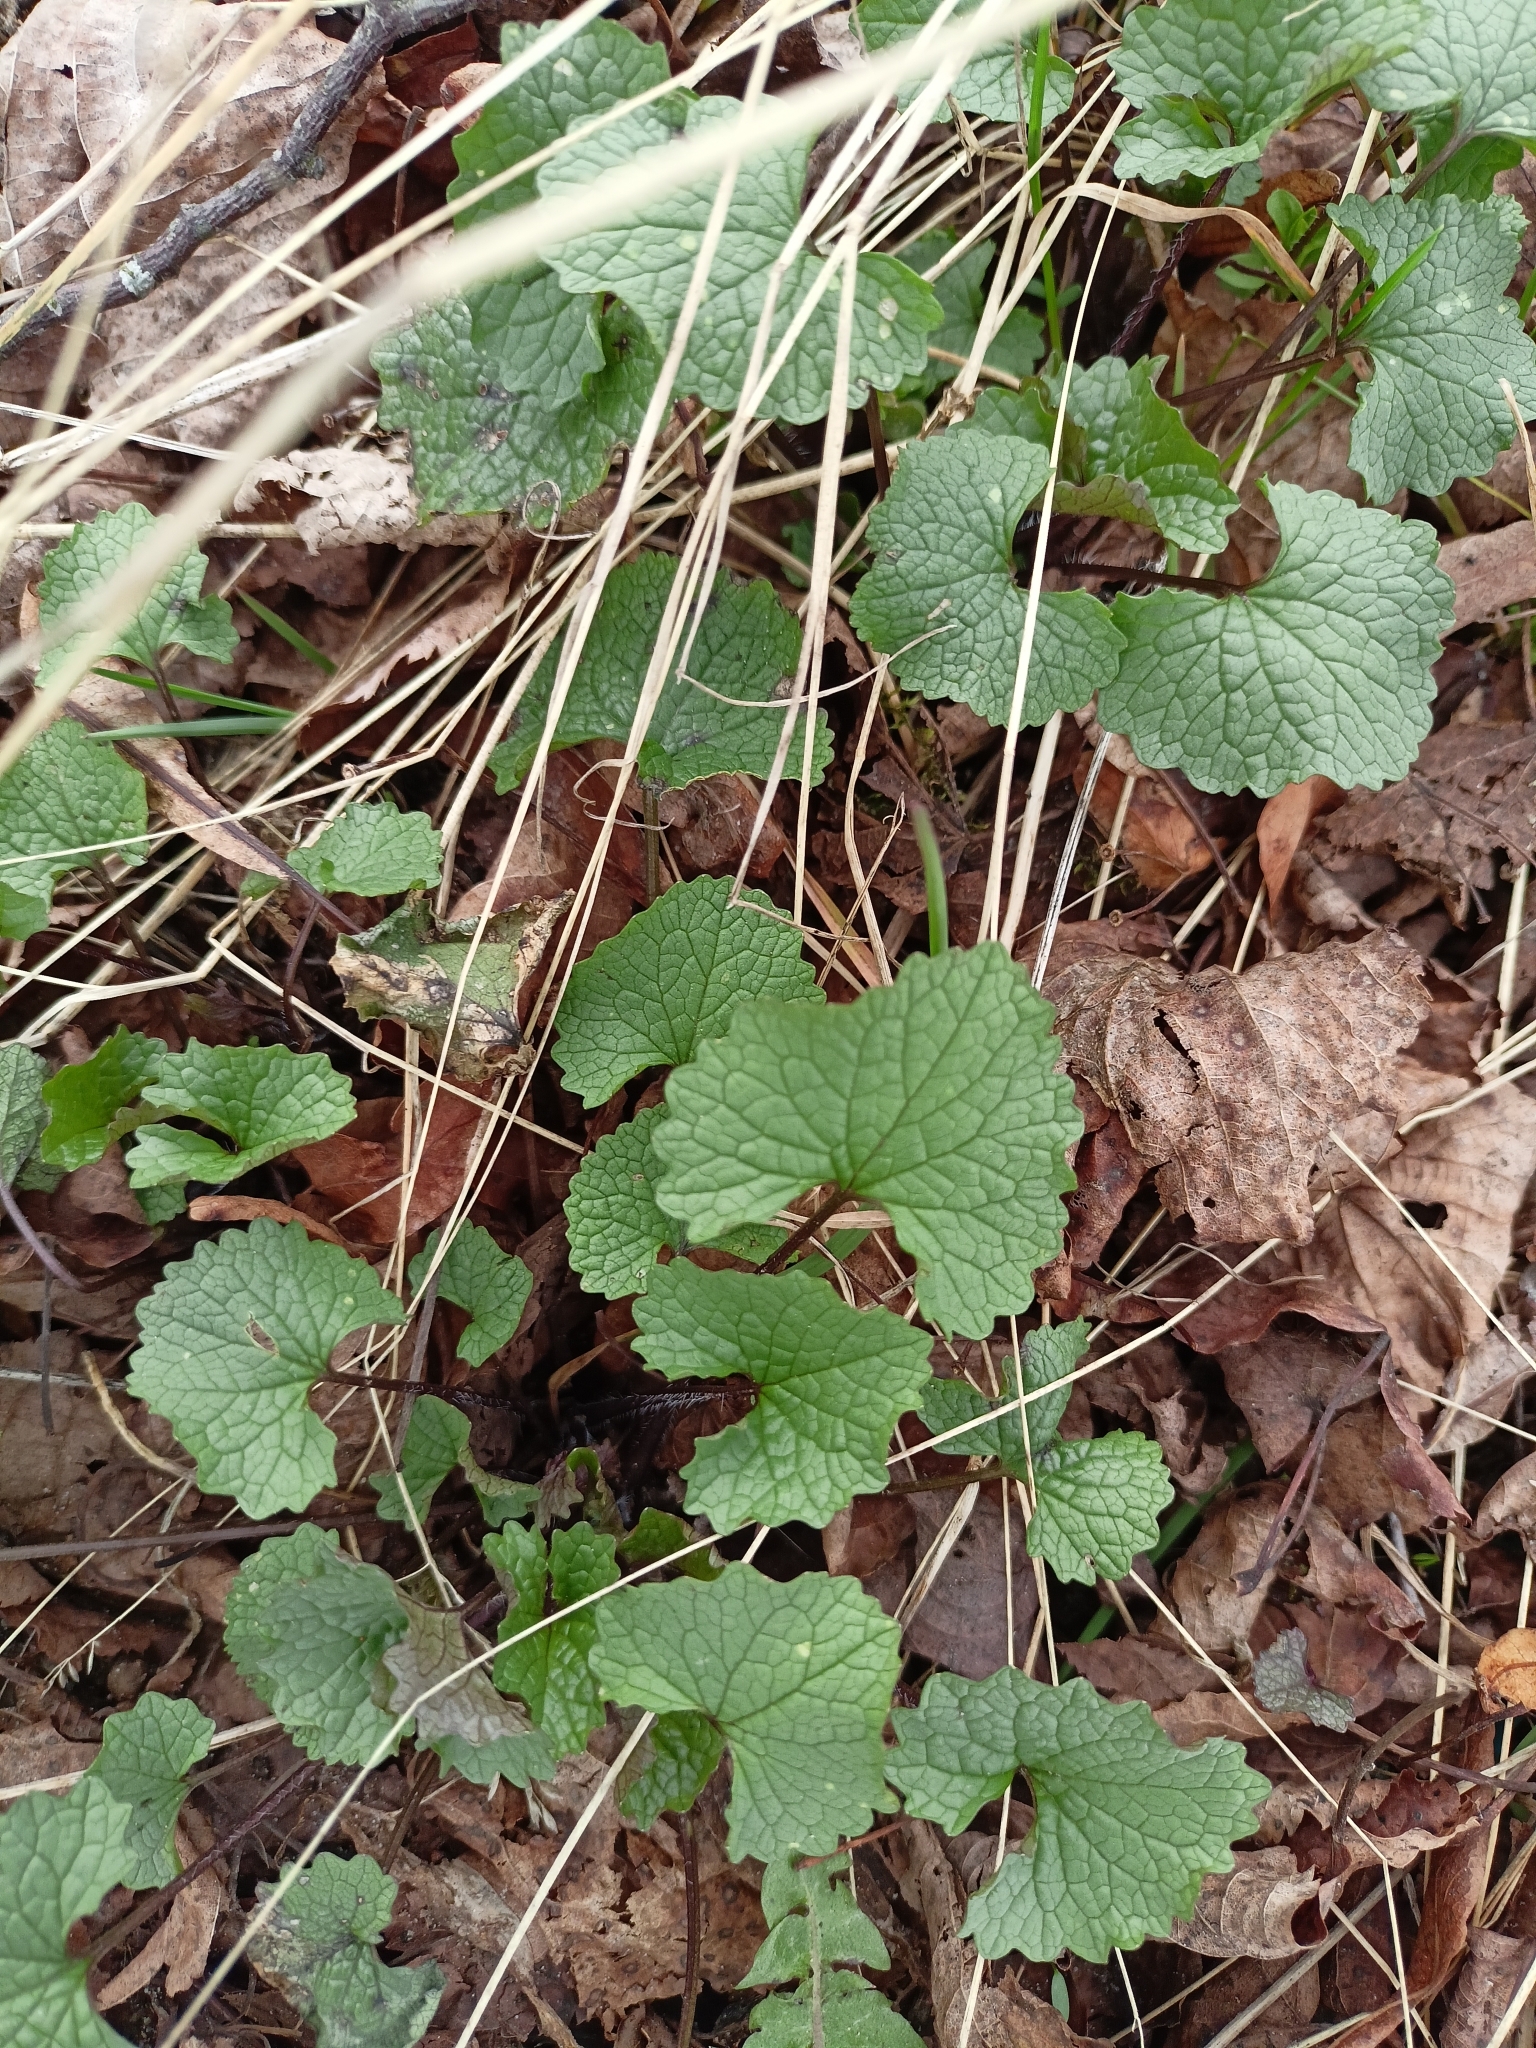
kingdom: Plantae
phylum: Tracheophyta
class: Magnoliopsida
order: Brassicales
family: Brassicaceae
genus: Alliaria
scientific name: Alliaria petiolata
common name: Garlic mustard
